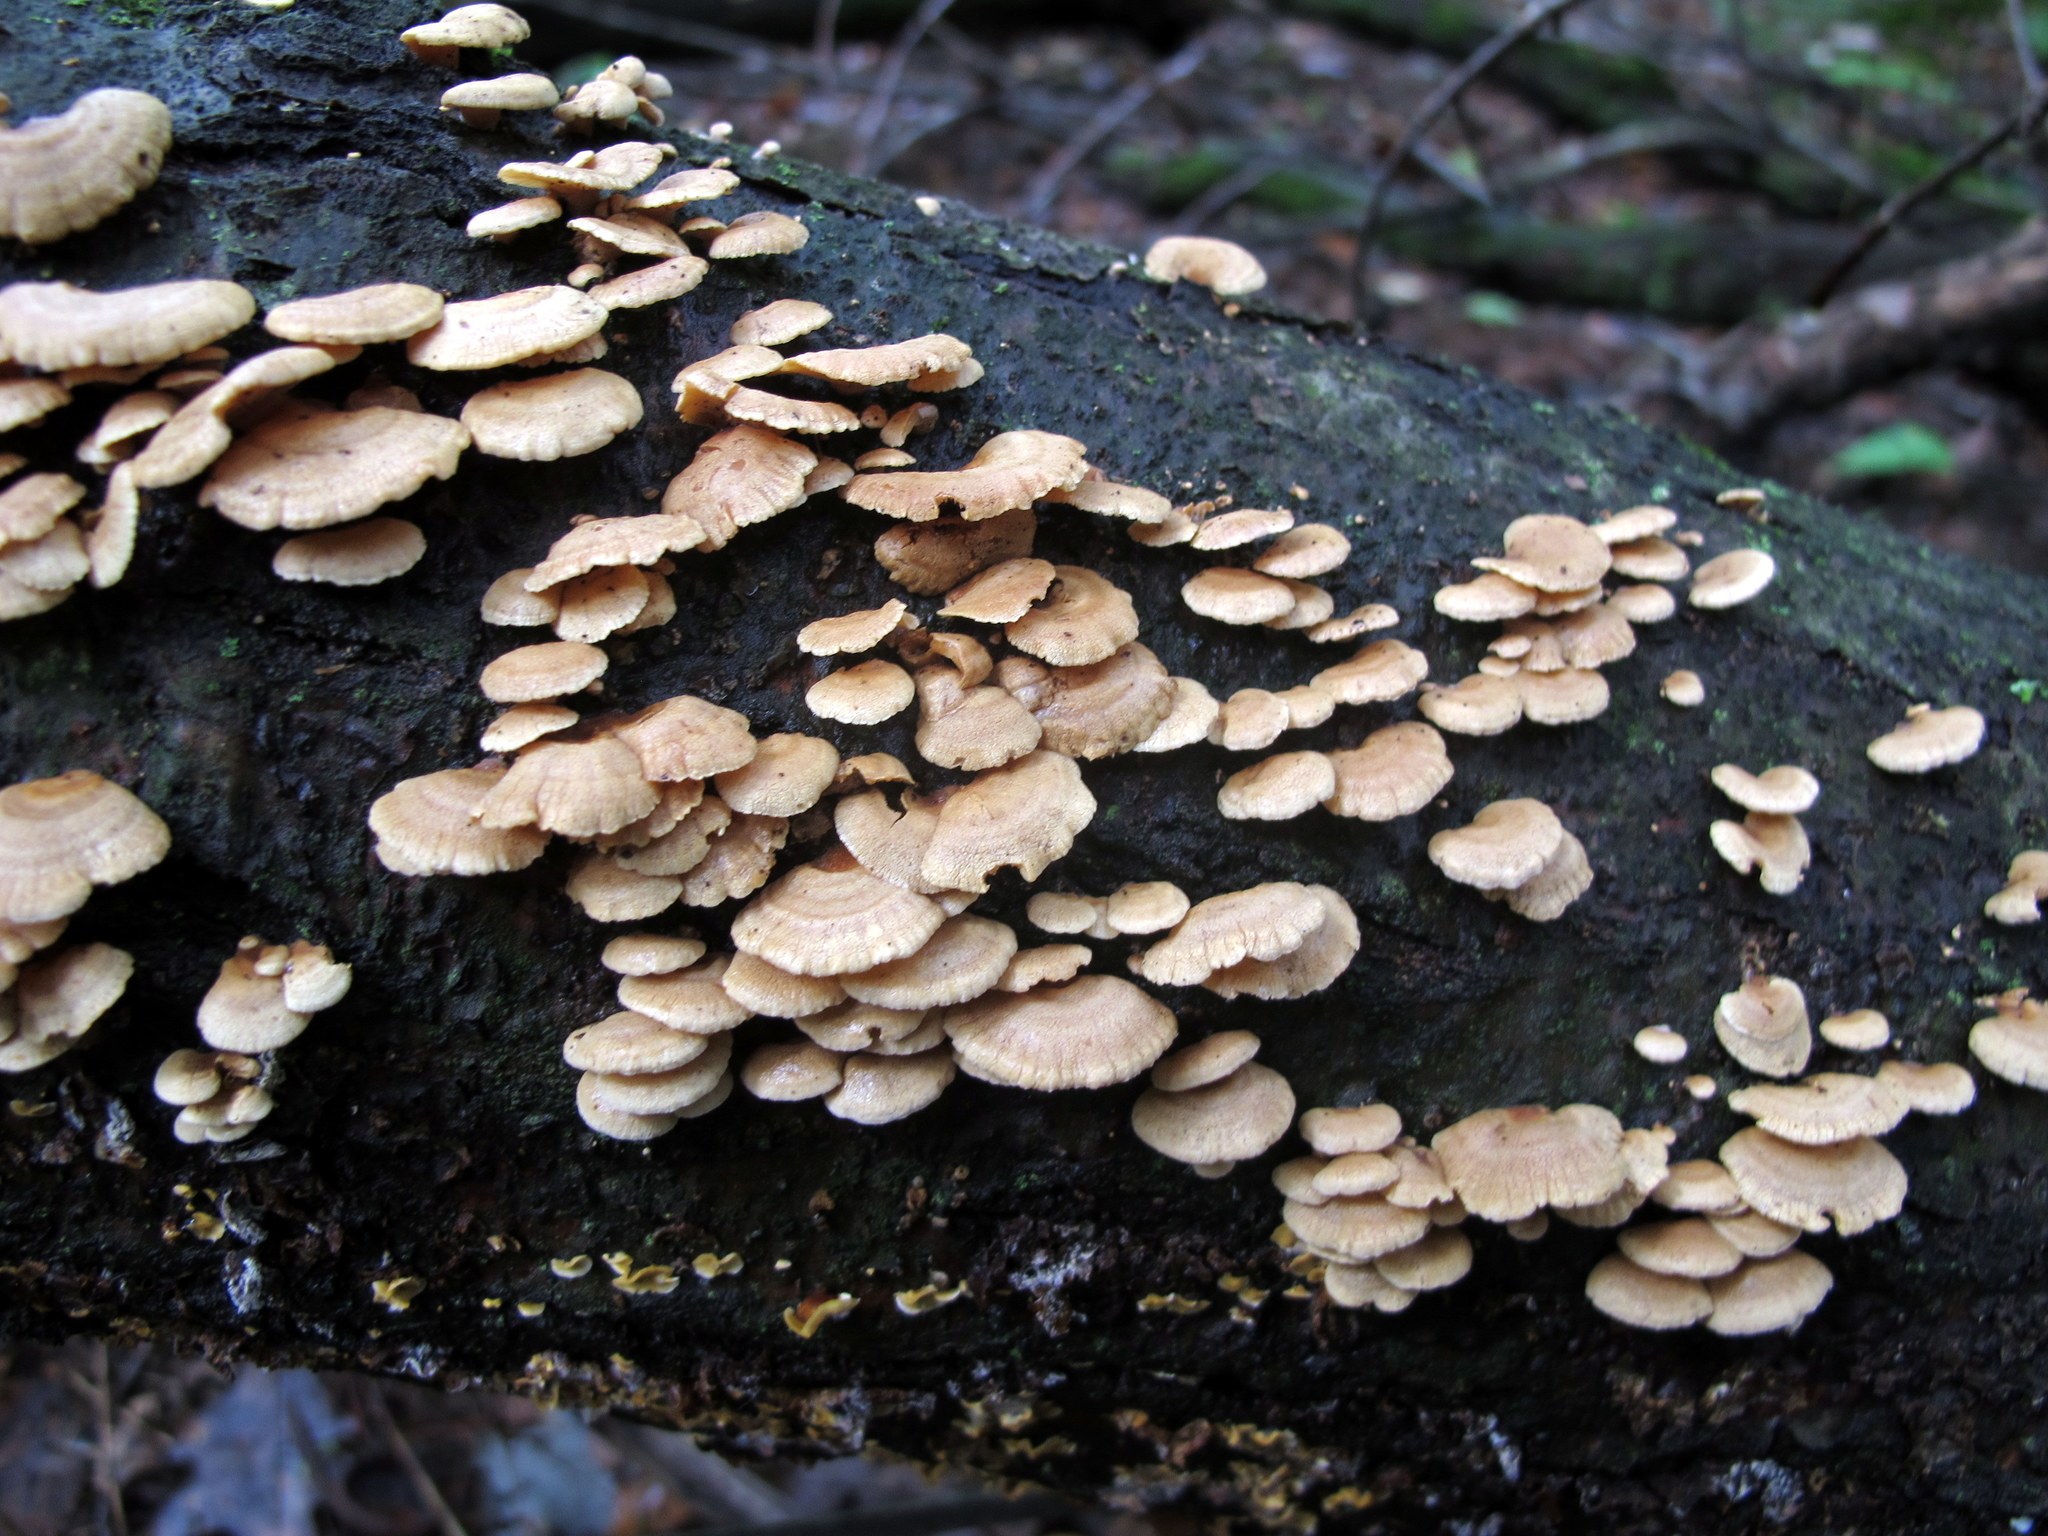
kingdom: Fungi
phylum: Basidiomycota
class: Agaricomycetes
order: Agaricales
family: Mycenaceae
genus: Panellus
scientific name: Panellus stipticus
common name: Bitter oysterling
